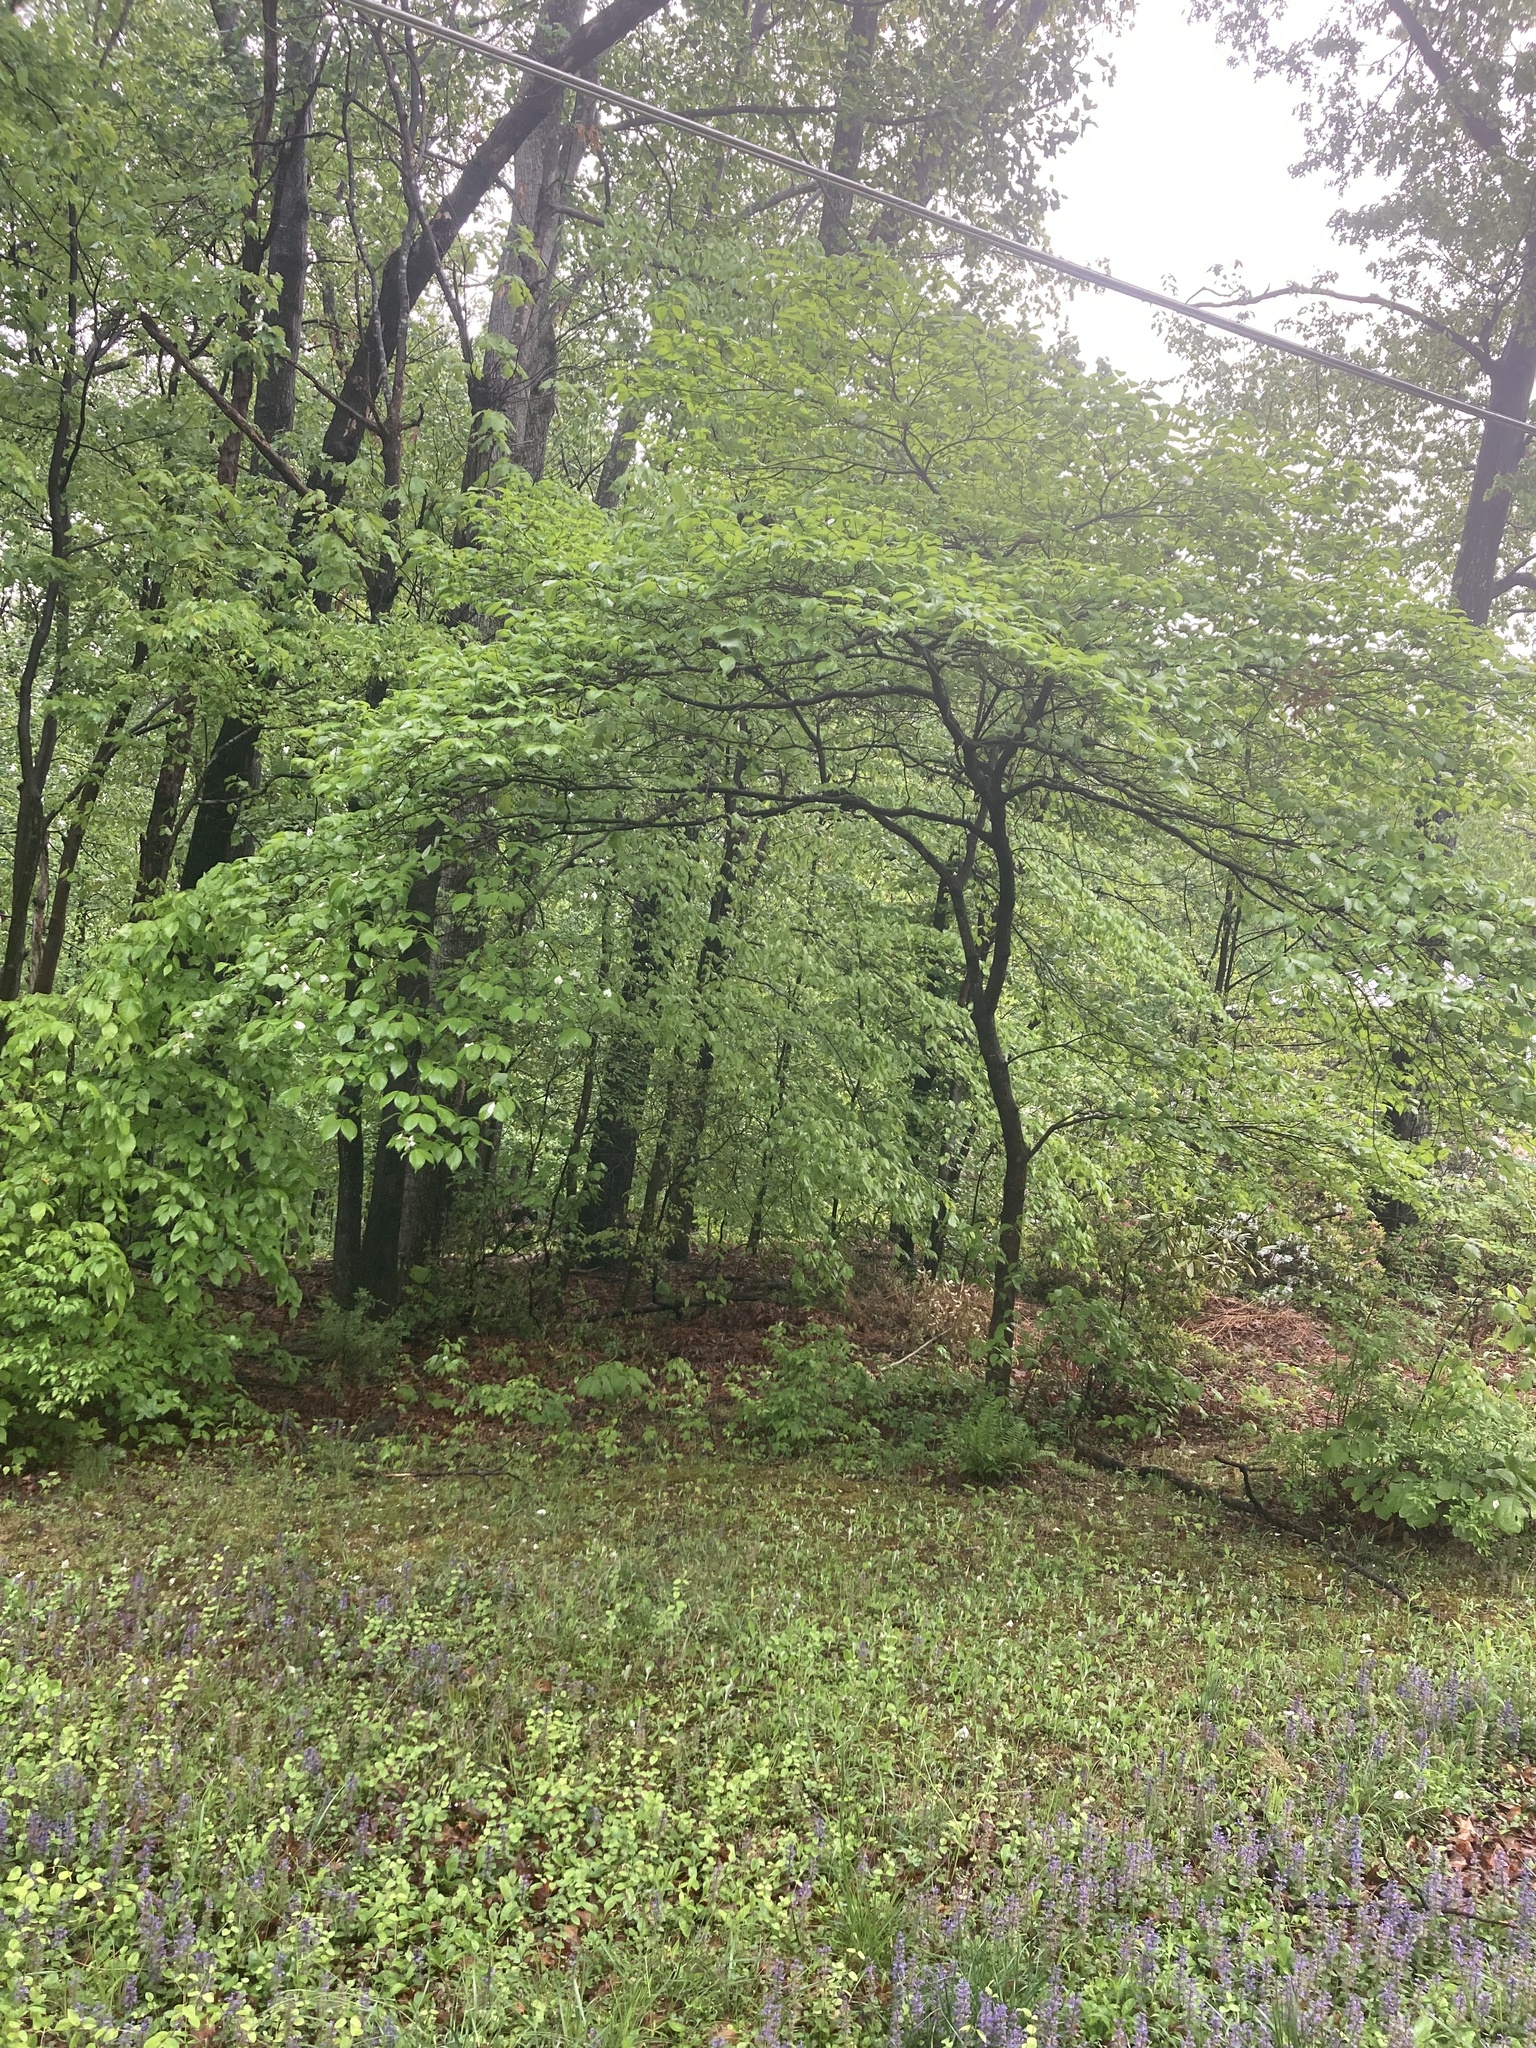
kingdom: Plantae
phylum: Tracheophyta
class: Magnoliopsida
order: Cornales
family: Cornaceae
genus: Cornus
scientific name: Cornus florida
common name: Flowering dogwood
